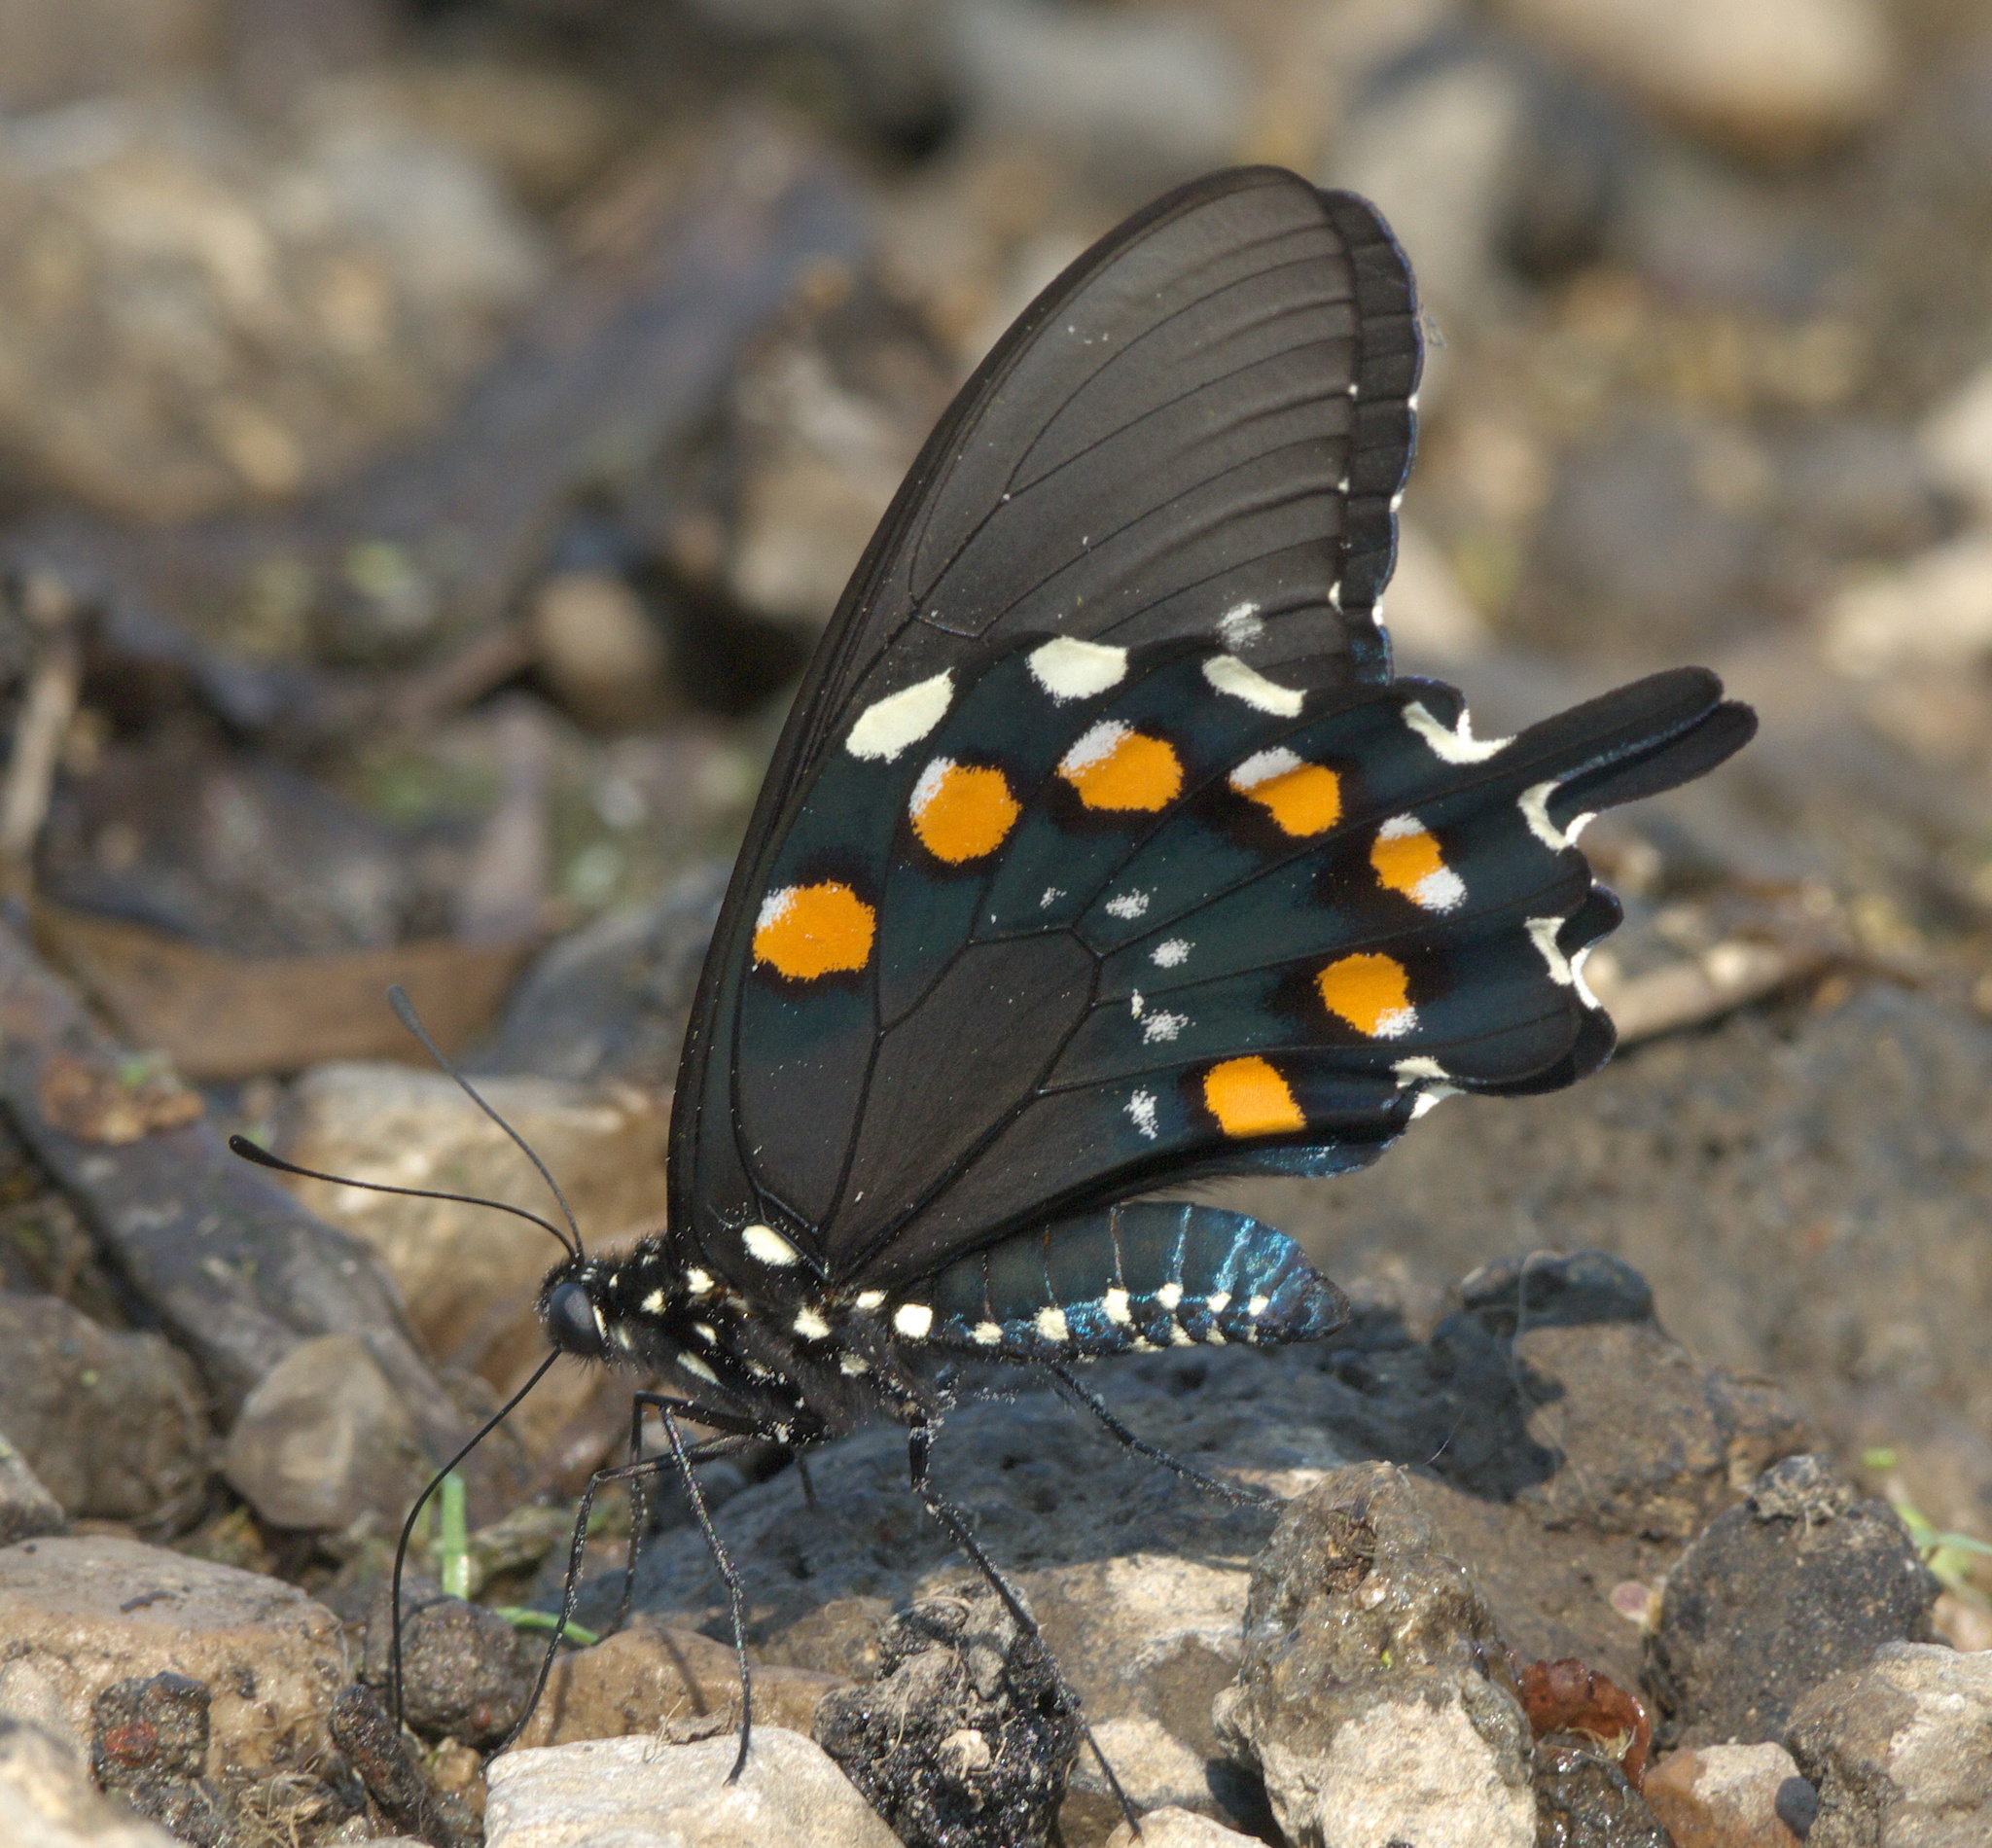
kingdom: Animalia
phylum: Arthropoda
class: Insecta
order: Lepidoptera
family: Papilionidae
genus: Battus
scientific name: Battus philenor
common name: Pipevine swallowtail
